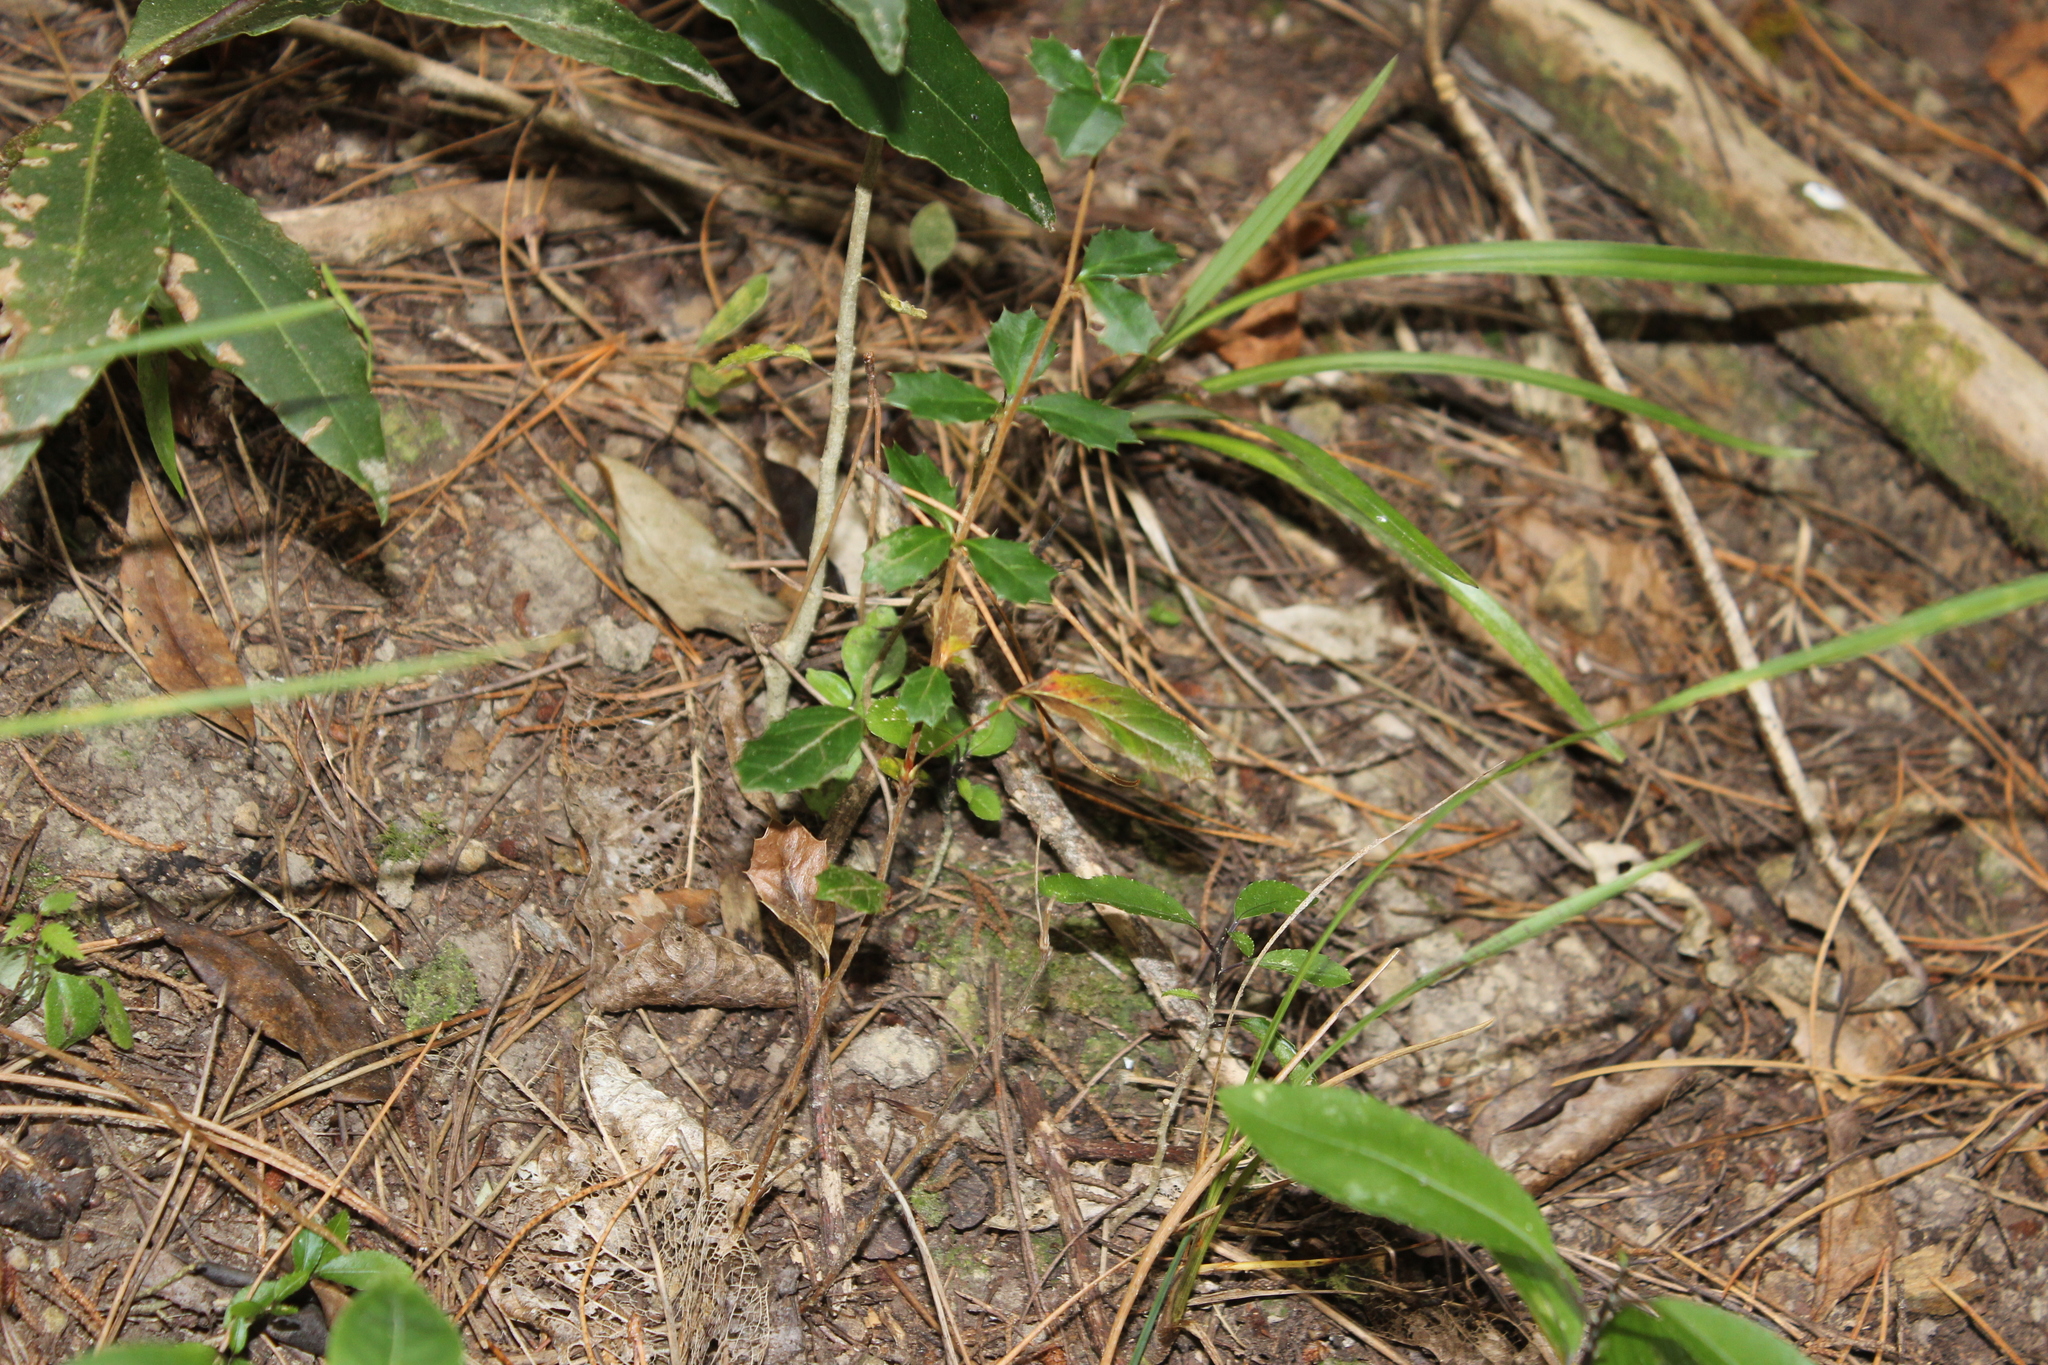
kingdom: Plantae
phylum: Tracheophyta
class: Magnoliopsida
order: Ranunculales
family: Berberidaceae
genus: Berberis
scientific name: Berberis darwinii
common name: Darwin's barberry
